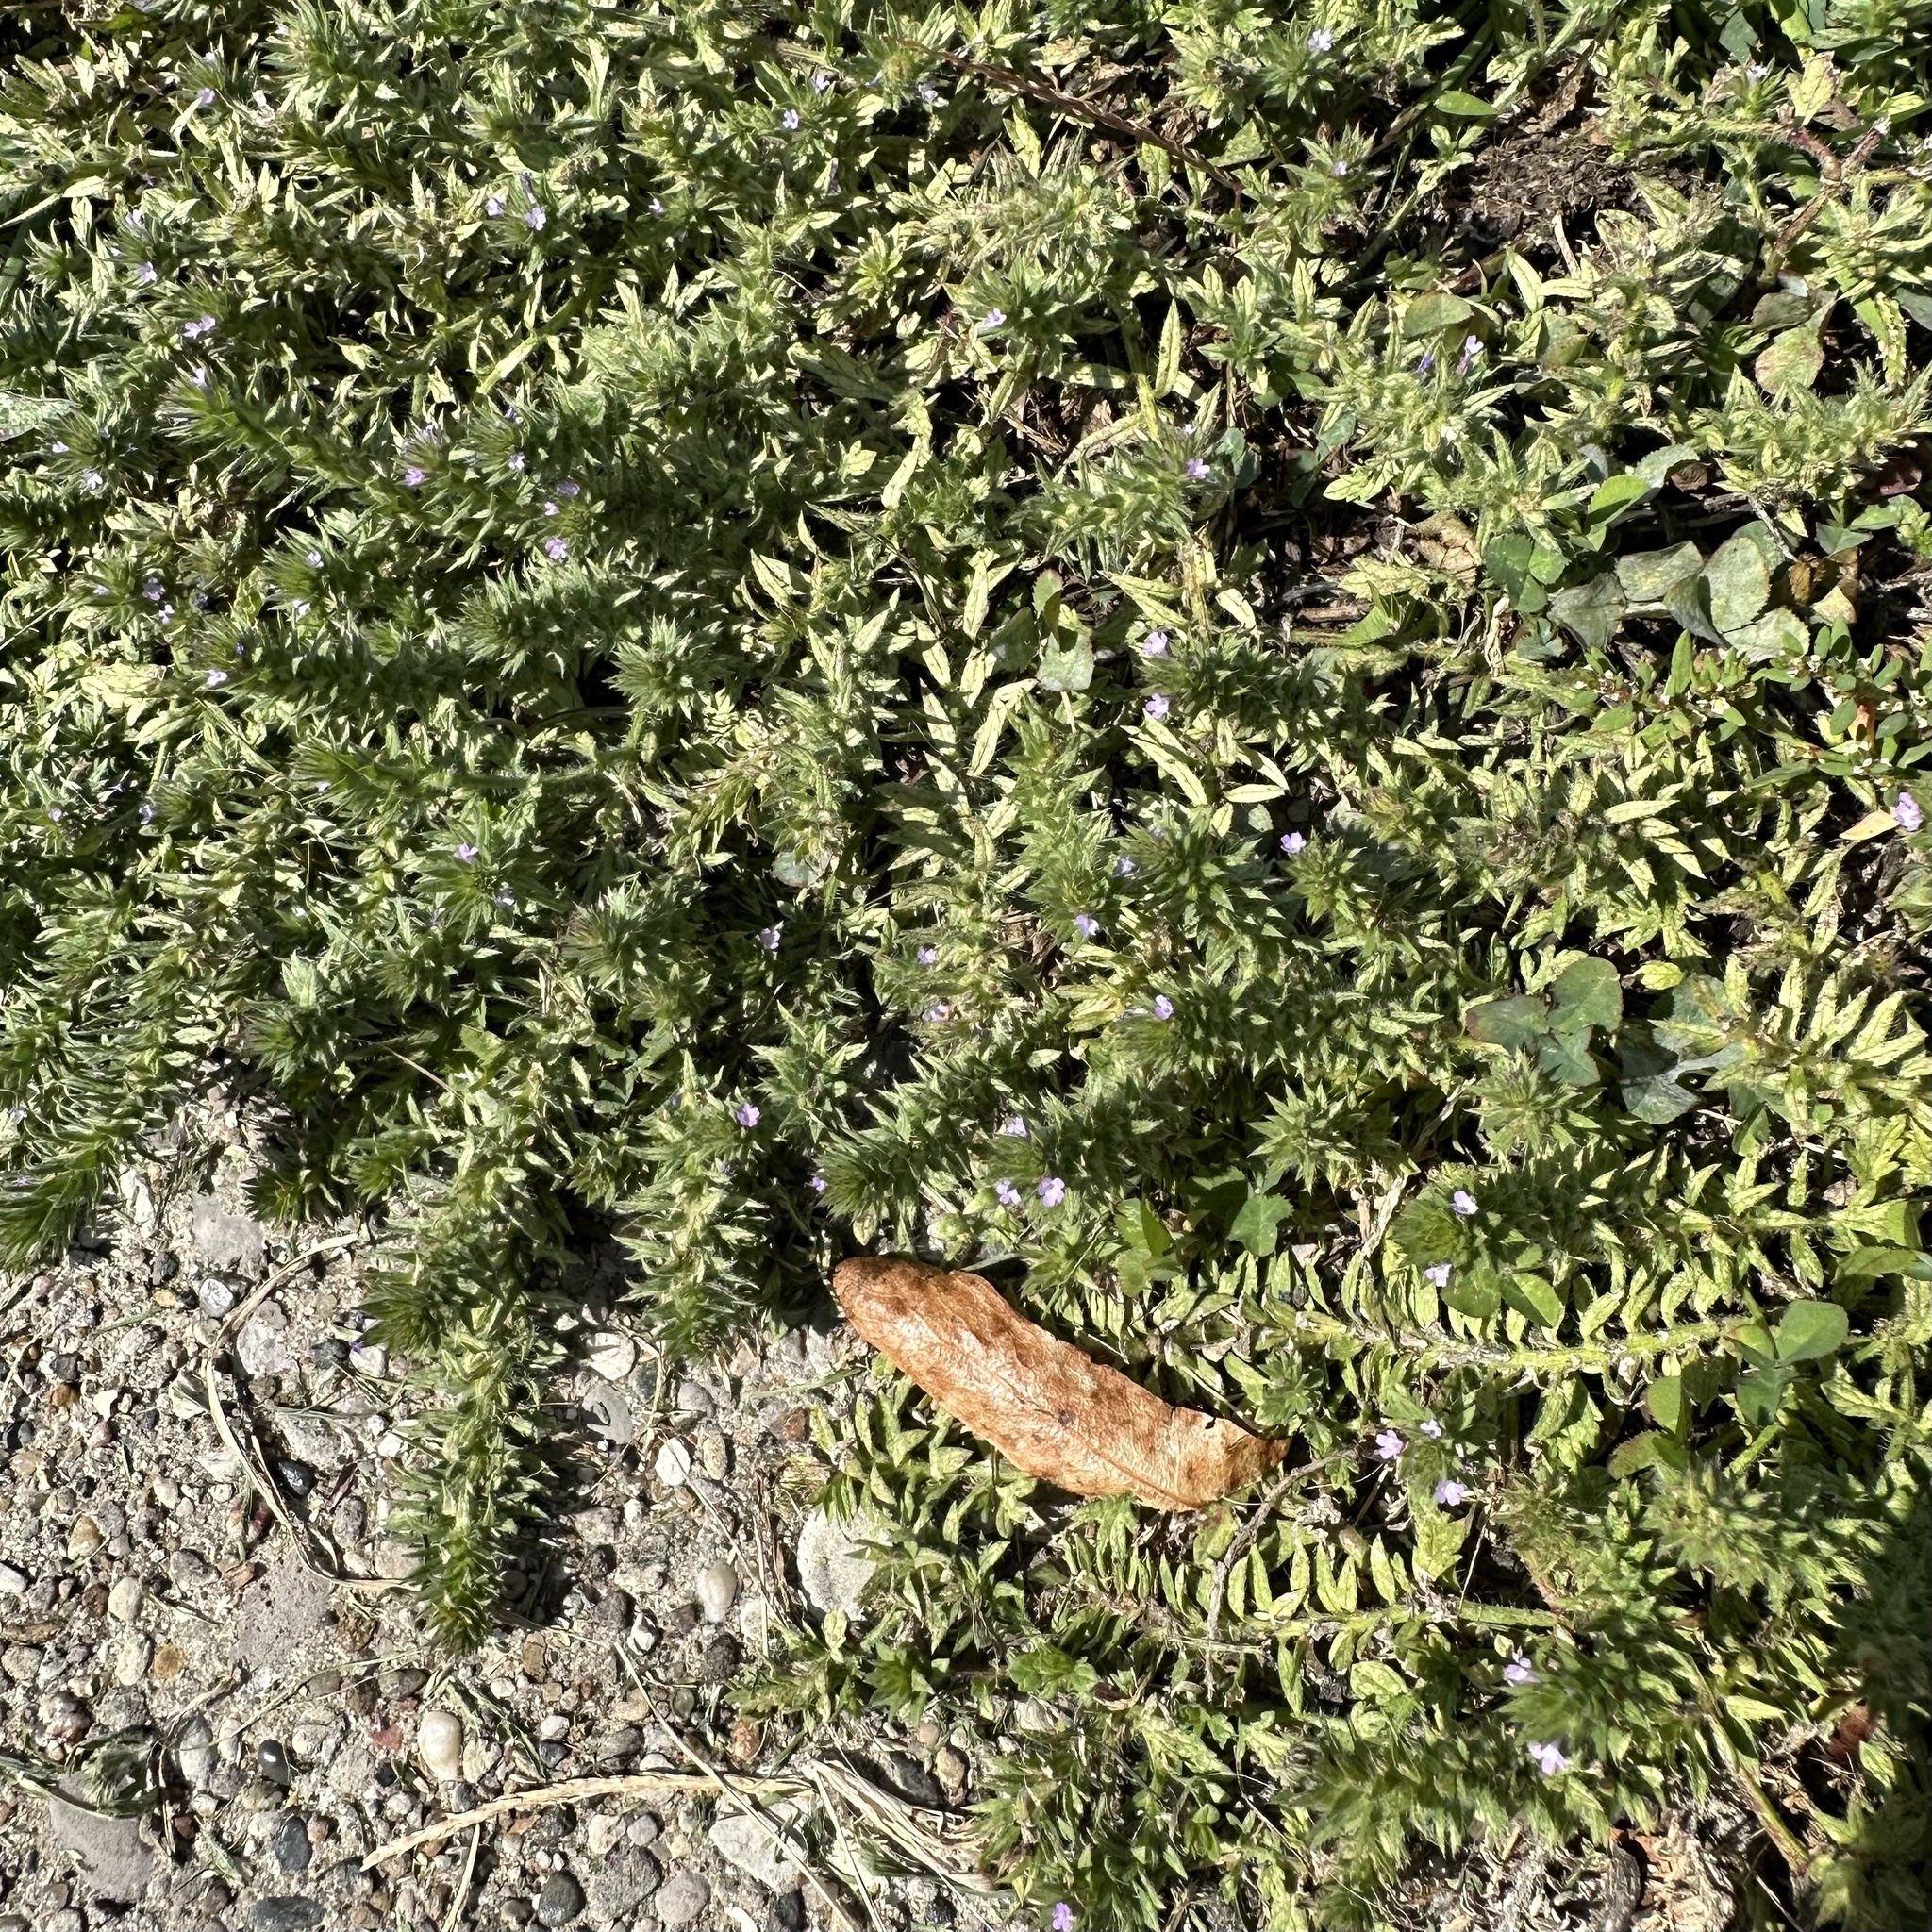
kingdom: Plantae
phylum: Tracheophyta
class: Magnoliopsida
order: Lamiales
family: Verbenaceae
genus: Verbena
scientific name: Verbena bracteata
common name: Bracted vervain
